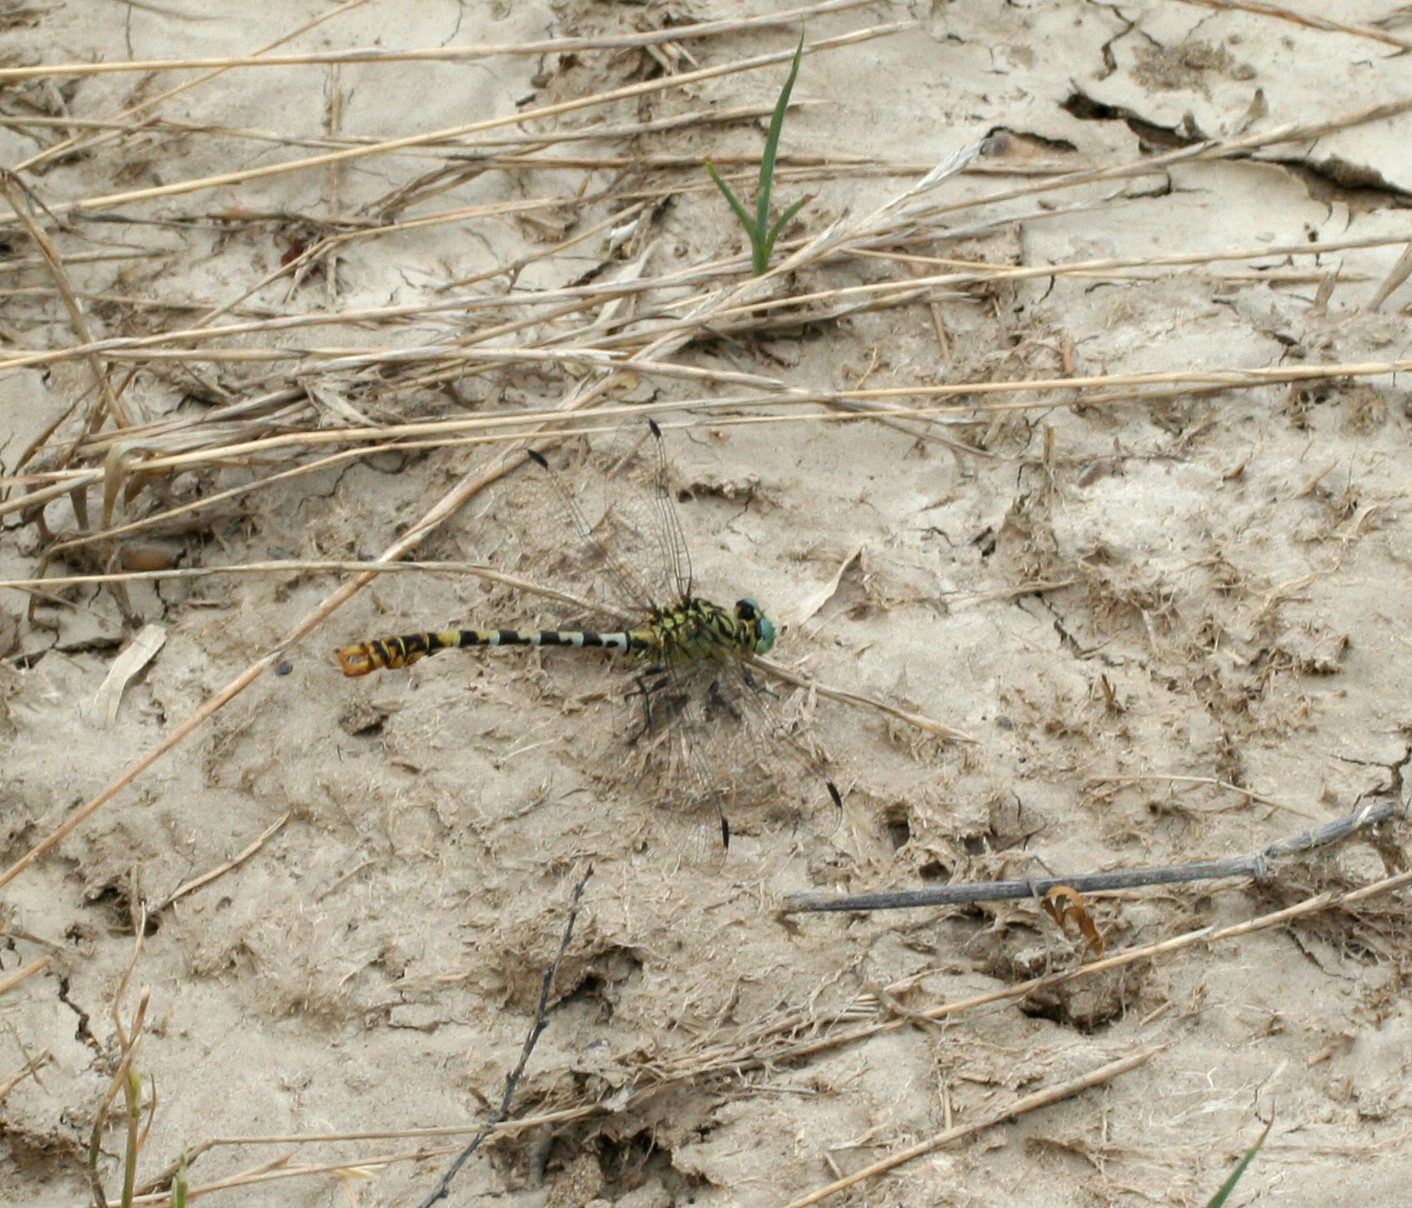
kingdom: Animalia
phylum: Arthropoda
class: Insecta
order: Odonata
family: Gomphidae
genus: Onychogomphus
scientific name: Onychogomphus forcipatus
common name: Small pincertail
